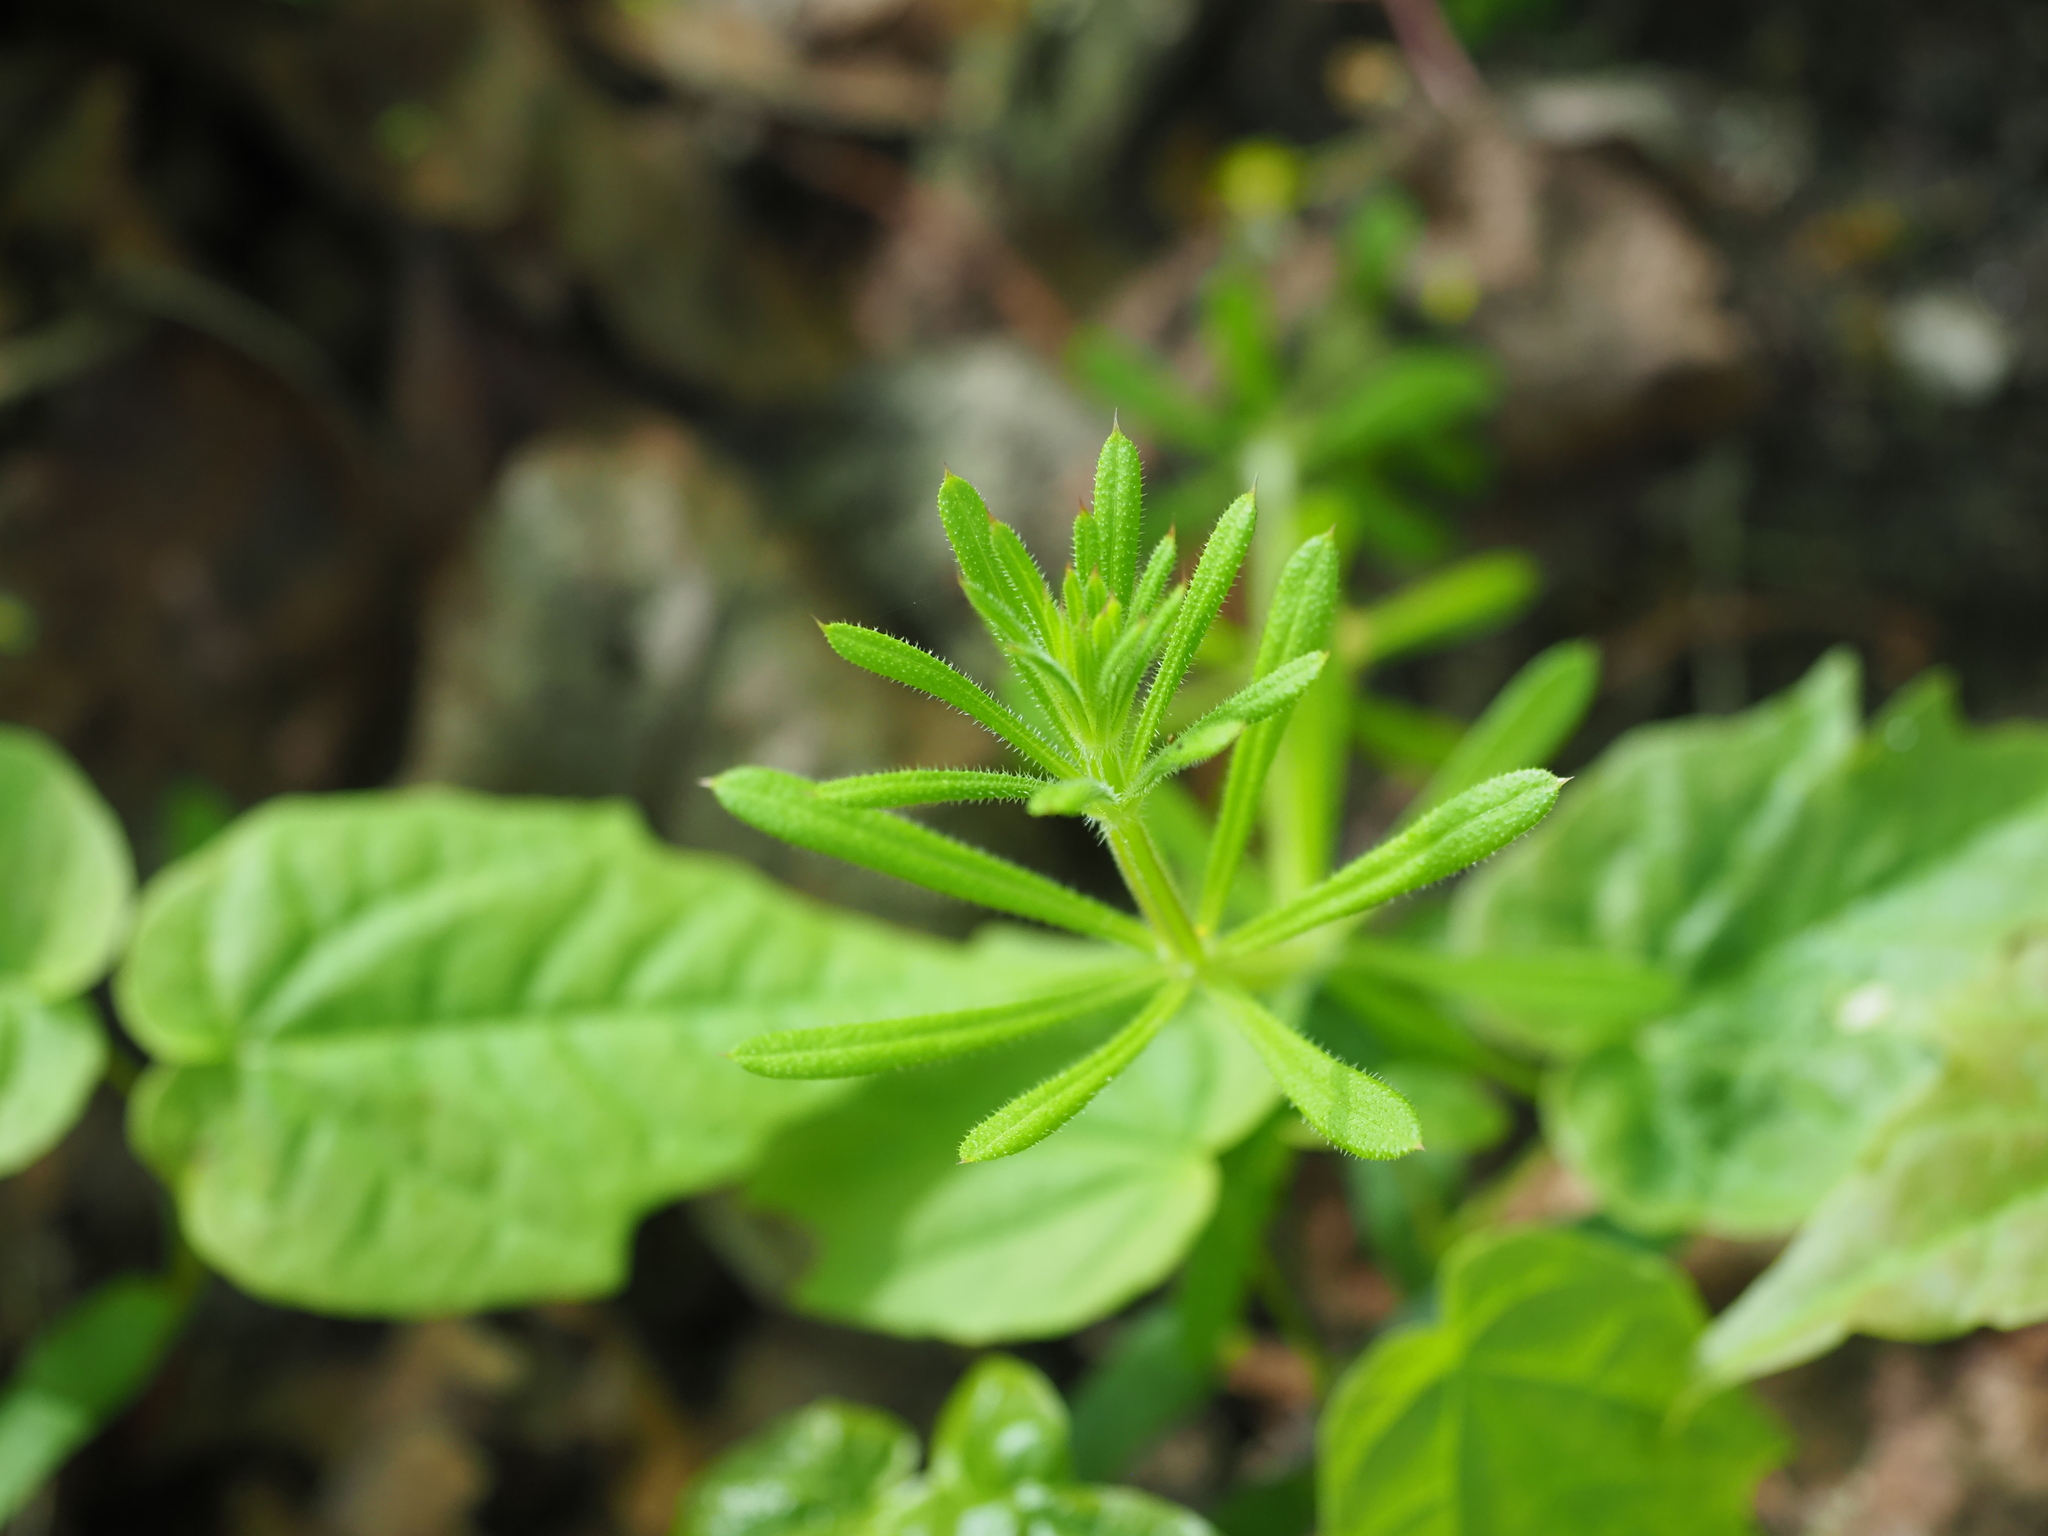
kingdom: Plantae
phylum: Tracheophyta
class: Magnoliopsida
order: Gentianales
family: Rubiaceae
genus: Galium
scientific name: Galium aparine
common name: Cleavers
